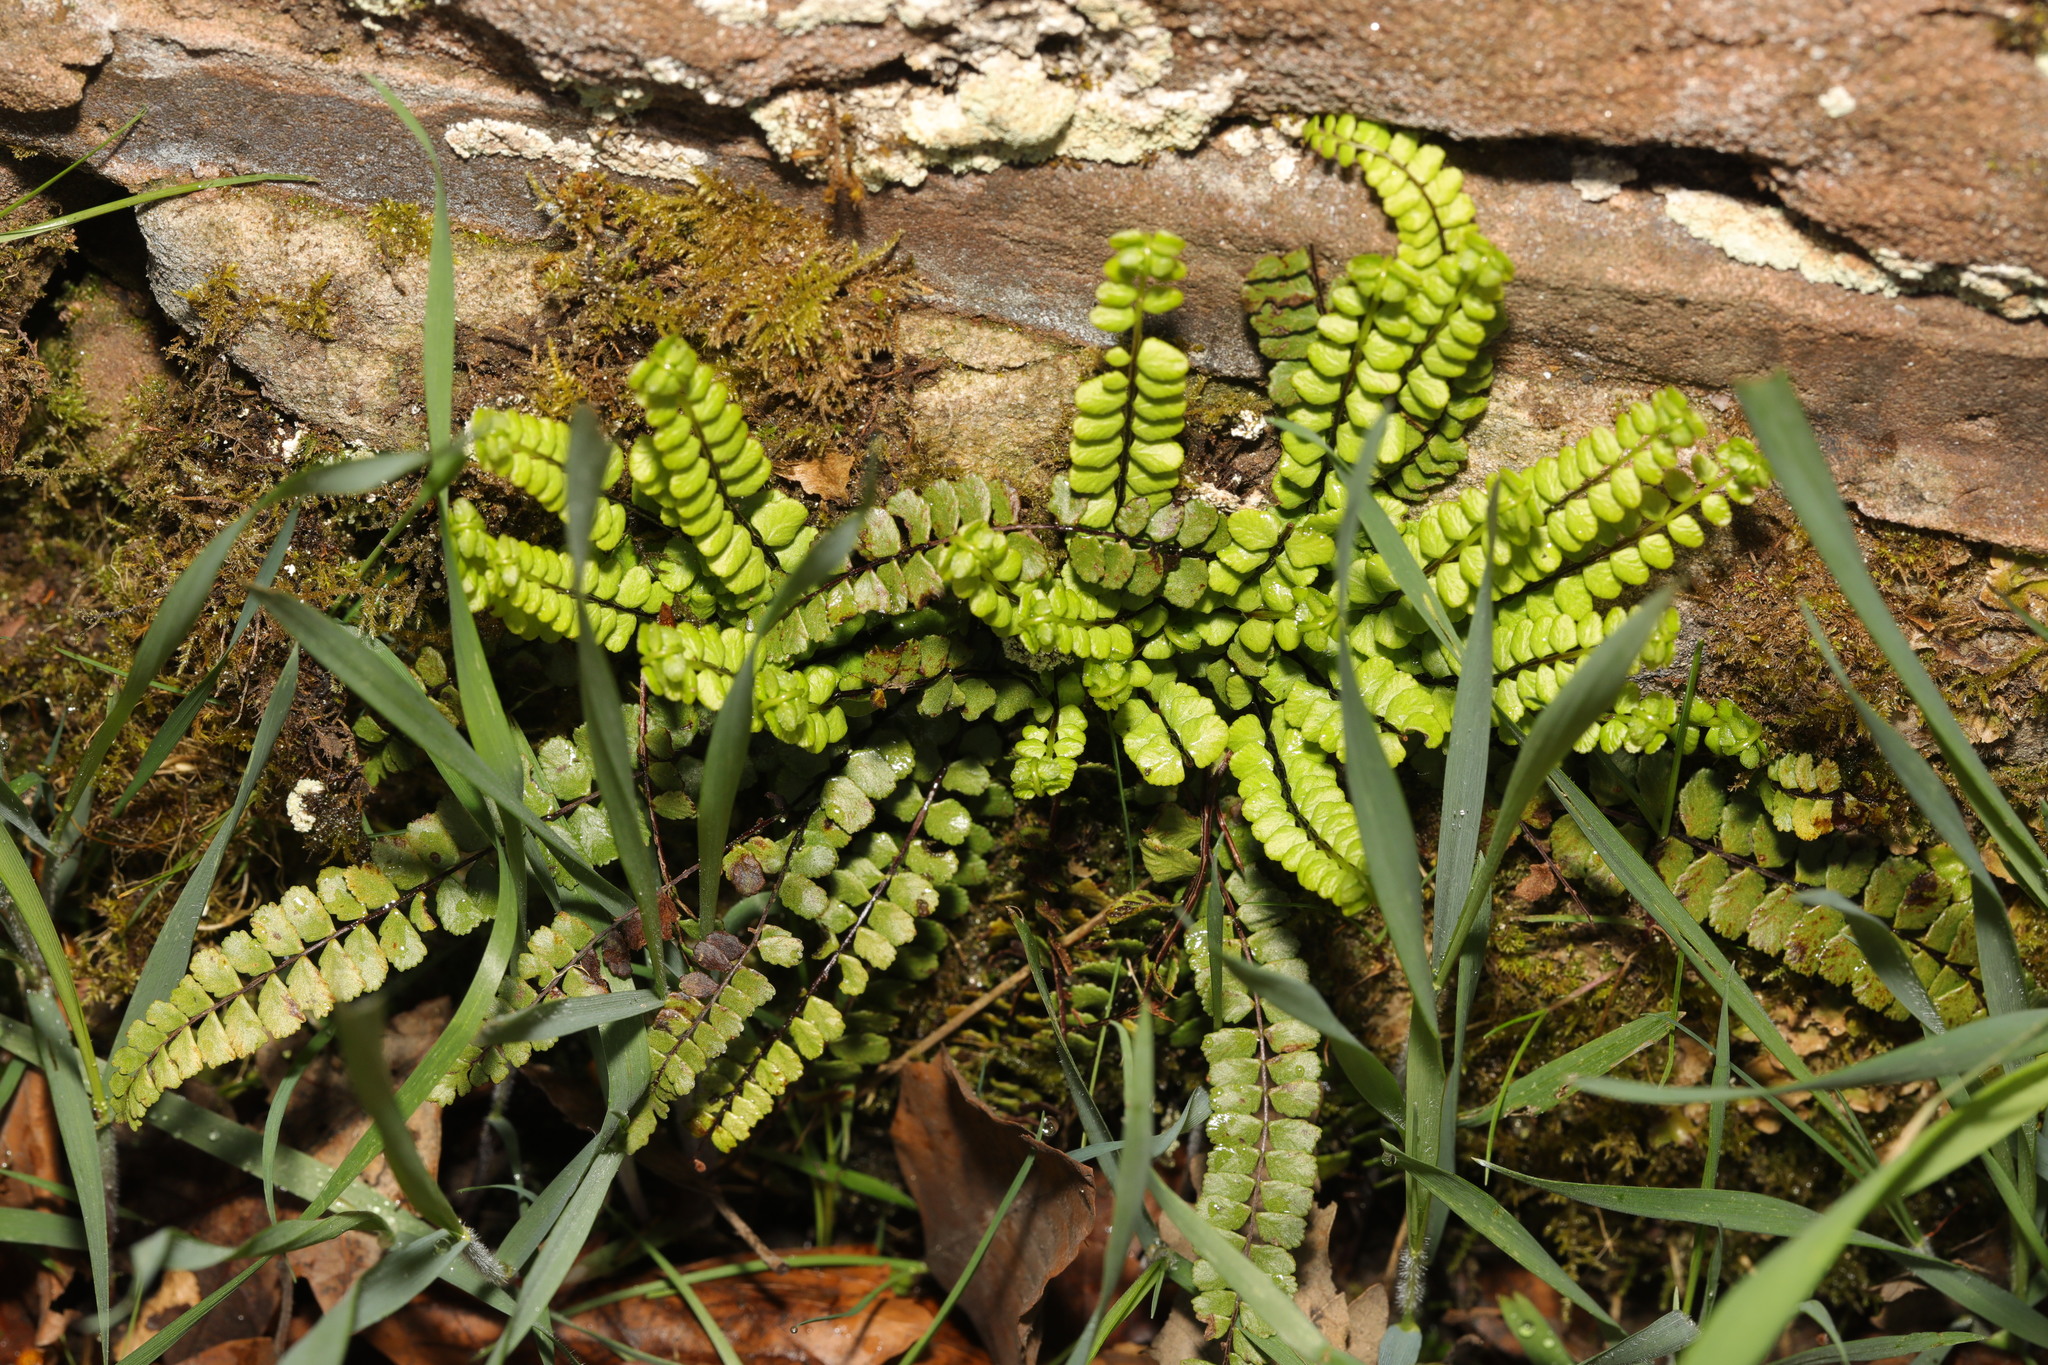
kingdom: Plantae
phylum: Tracheophyta
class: Polypodiopsida
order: Polypodiales
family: Aspleniaceae
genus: Asplenium
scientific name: Asplenium trichomanes
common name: Maidenhair spleenwort
